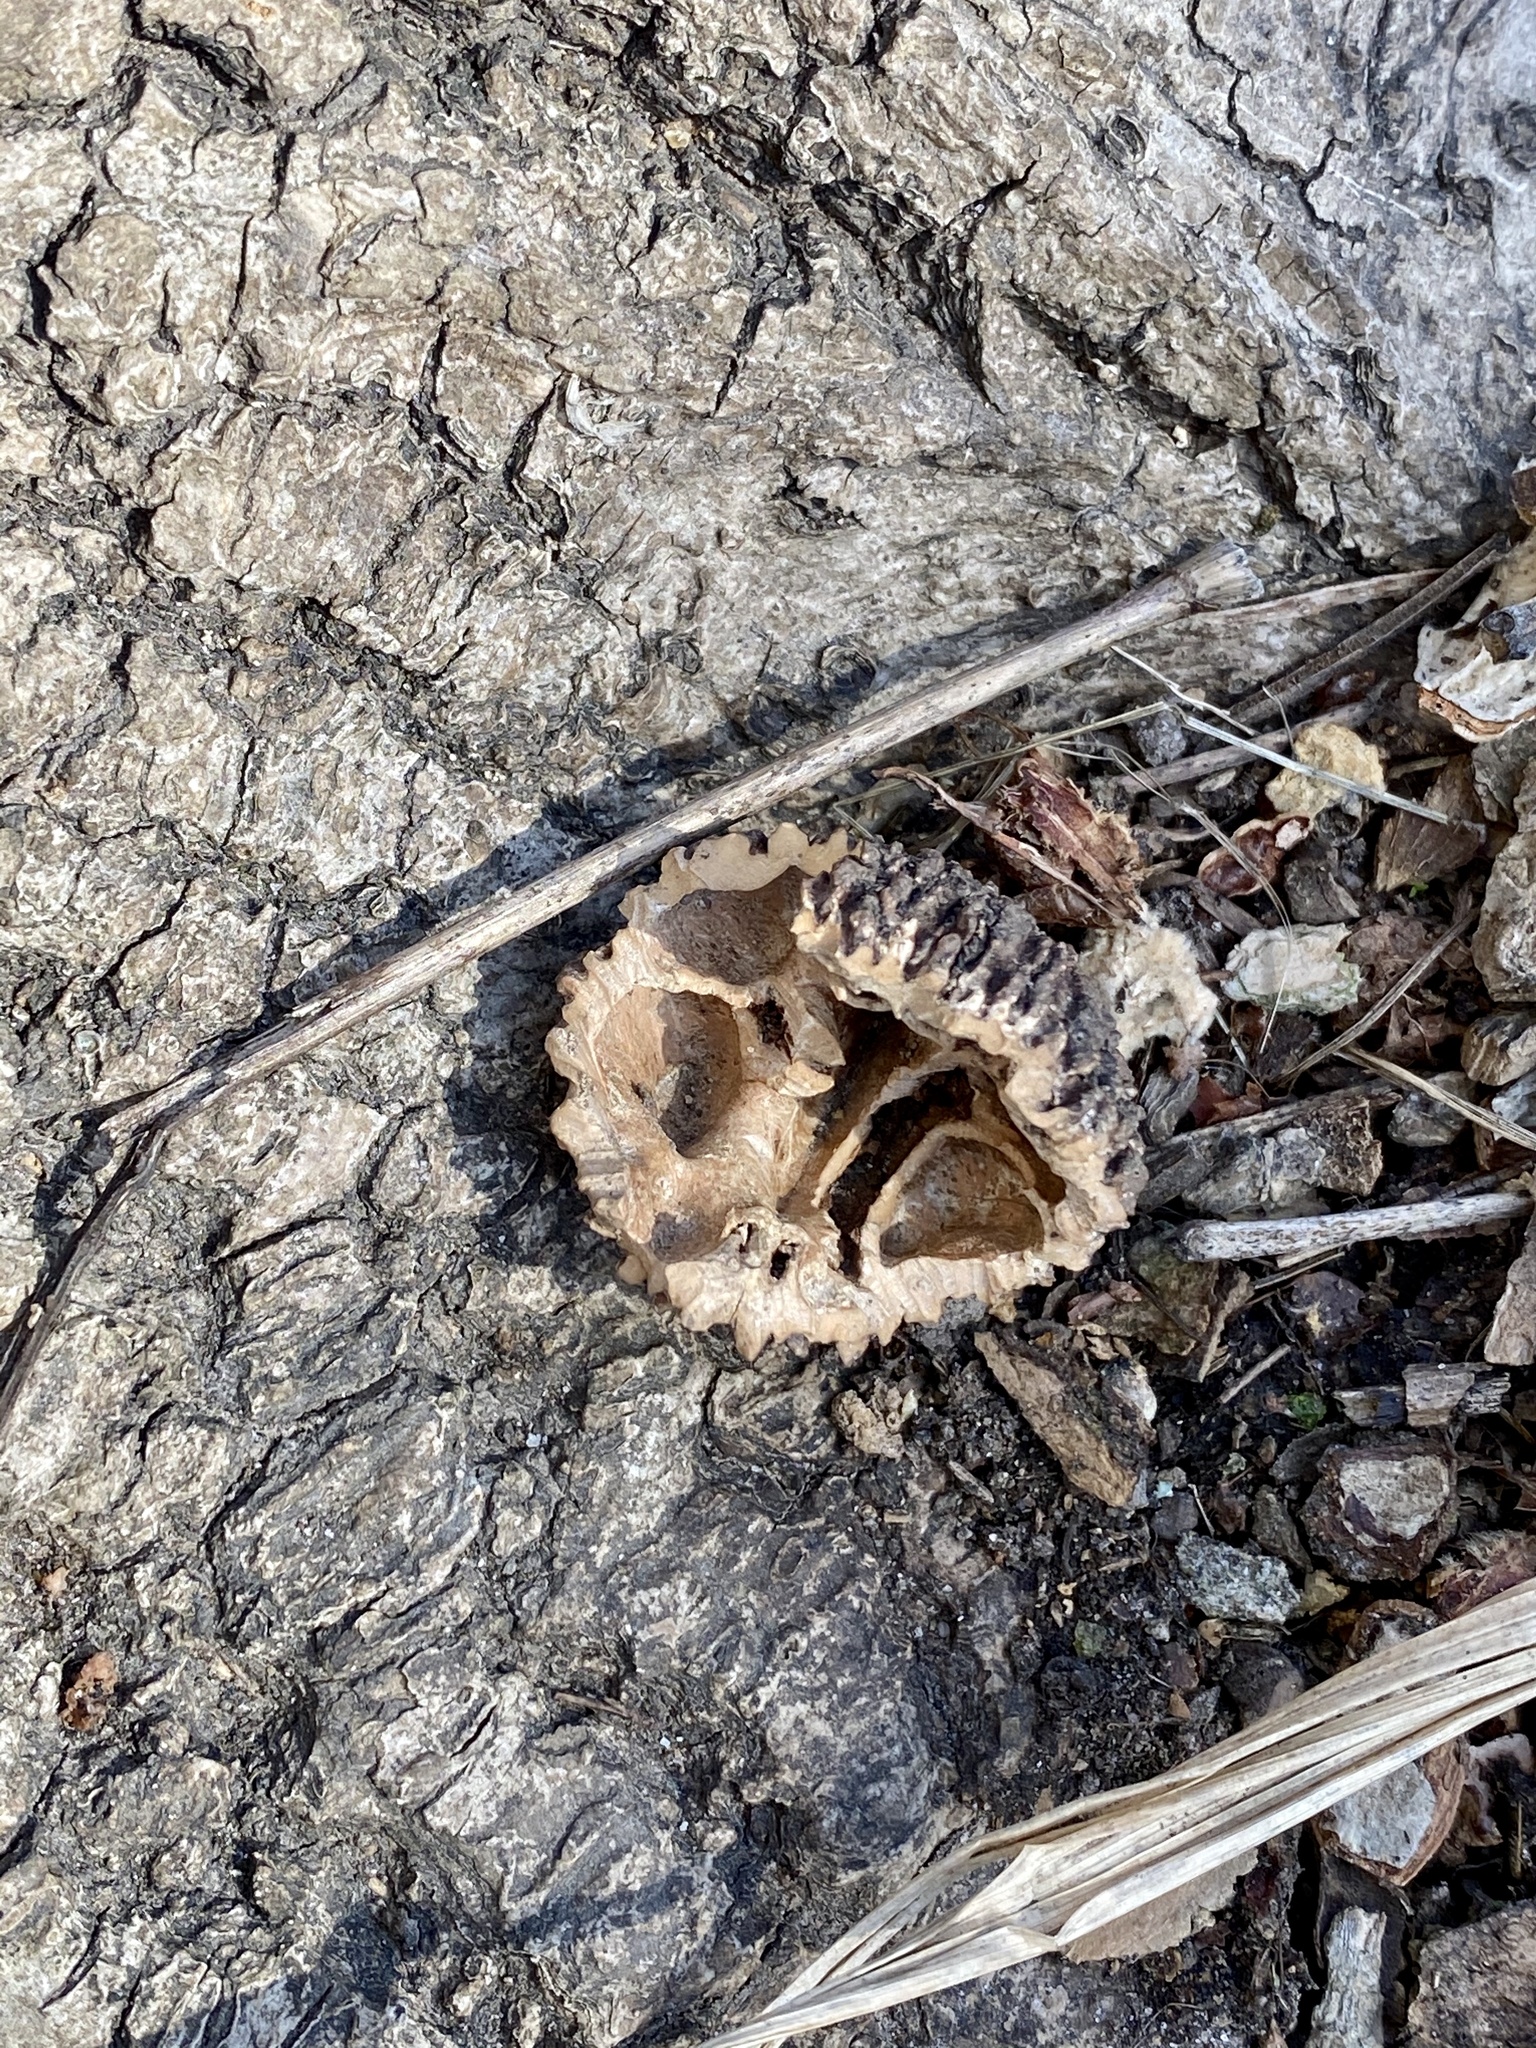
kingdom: Plantae
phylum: Tracheophyta
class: Magnoliopsida
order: Fagales
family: Juglandaceae
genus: Juglans
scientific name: Juglans nigra
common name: Black walnut
